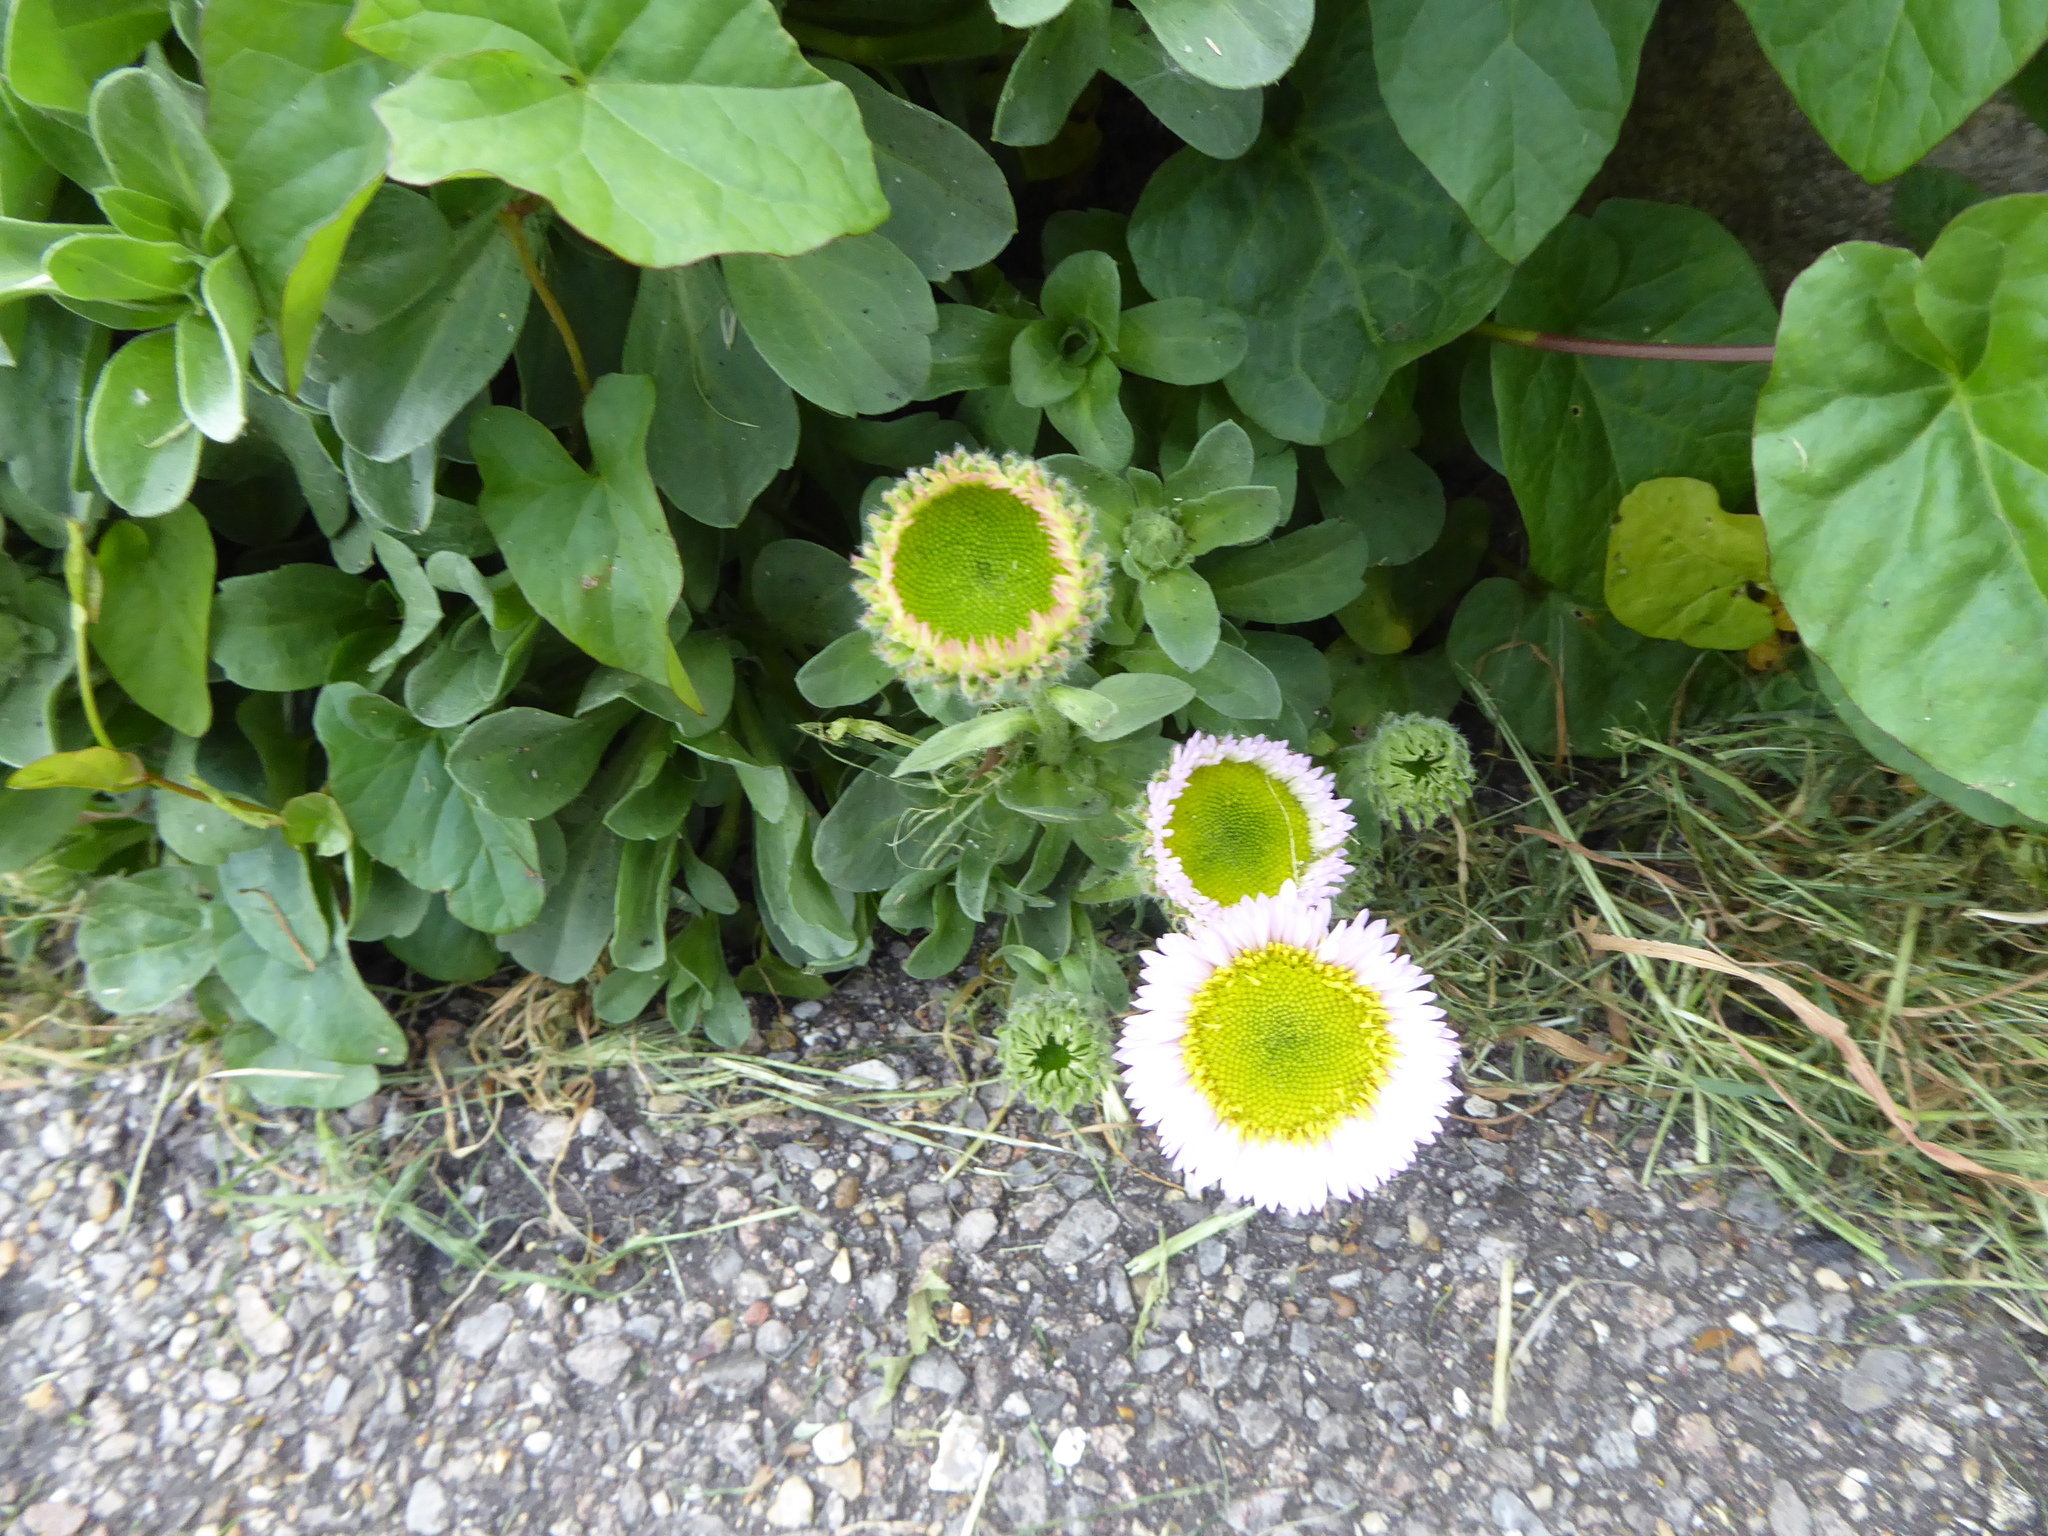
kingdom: Plantae
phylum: Tracheophyta
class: Magnoliopsida
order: Asterales
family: Asteraceae
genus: Erigeron
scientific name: Erigeron glaucus
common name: Seaside daisy
